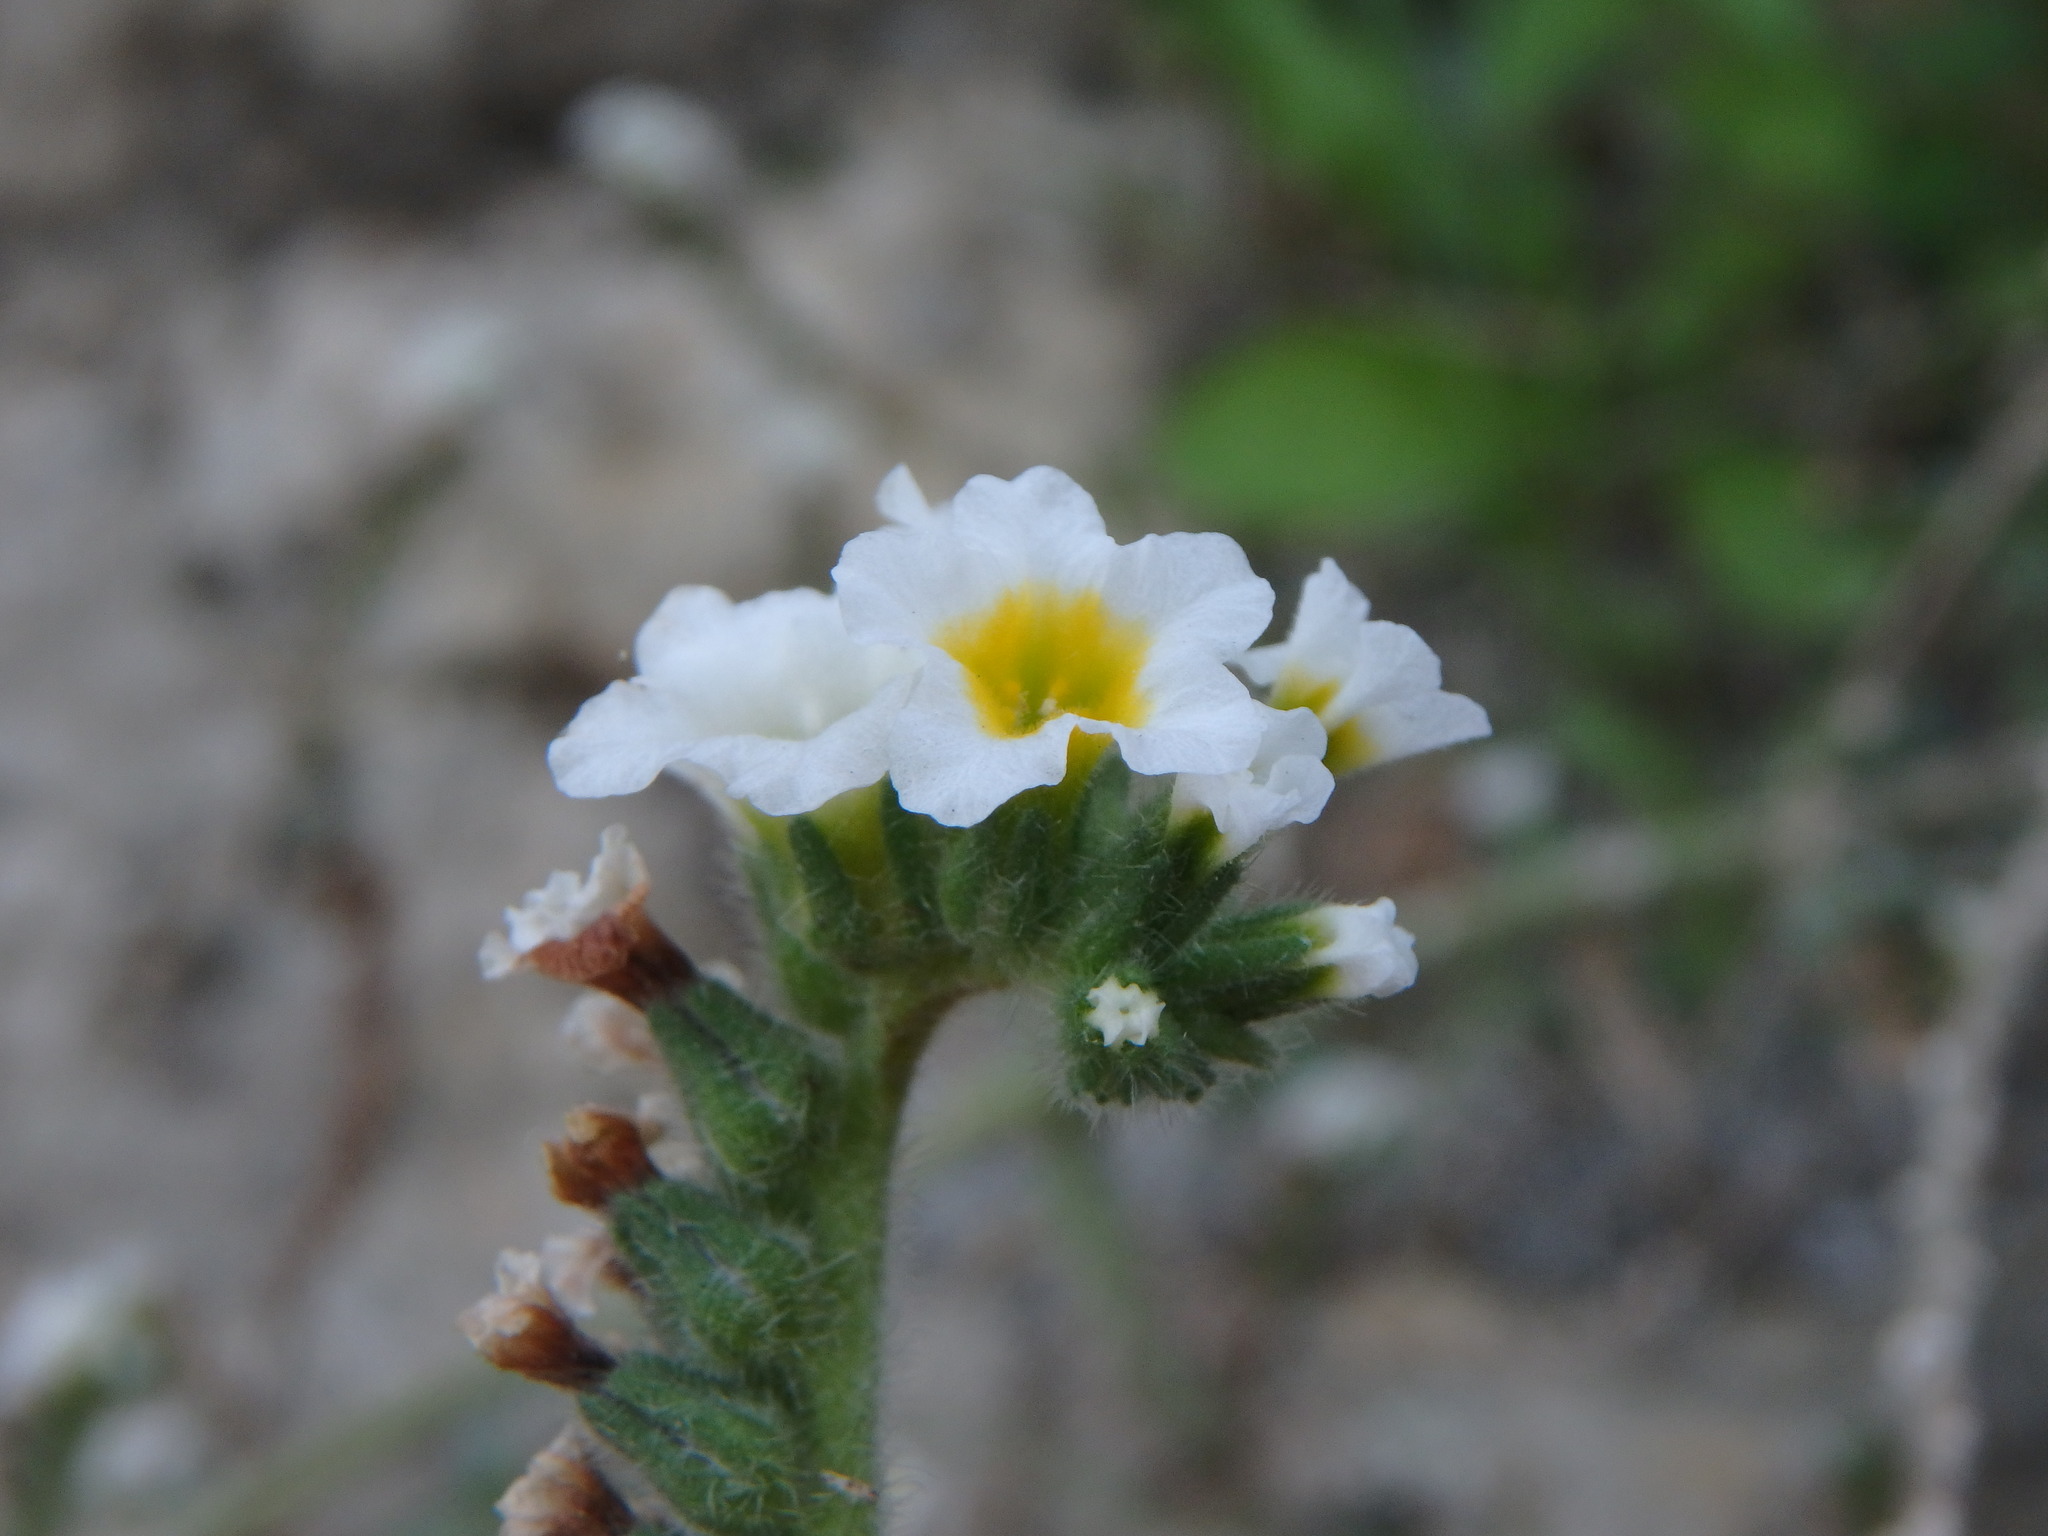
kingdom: Plantae
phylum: Tracheophyta
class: Magnoliopsida
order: Boraginales
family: Heliotropiaceae
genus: Heliotropium
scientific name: Heliotropium hirsutissimum
